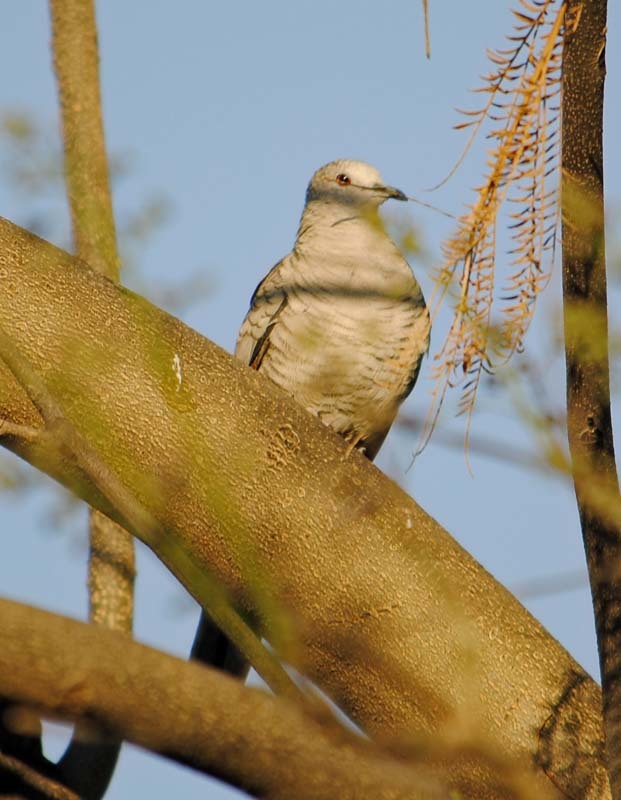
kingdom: Animalia
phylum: Chordata
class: Aves
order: Columbiformes
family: Columbidae
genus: Columbina
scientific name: Columbina inca
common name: Inca dove
